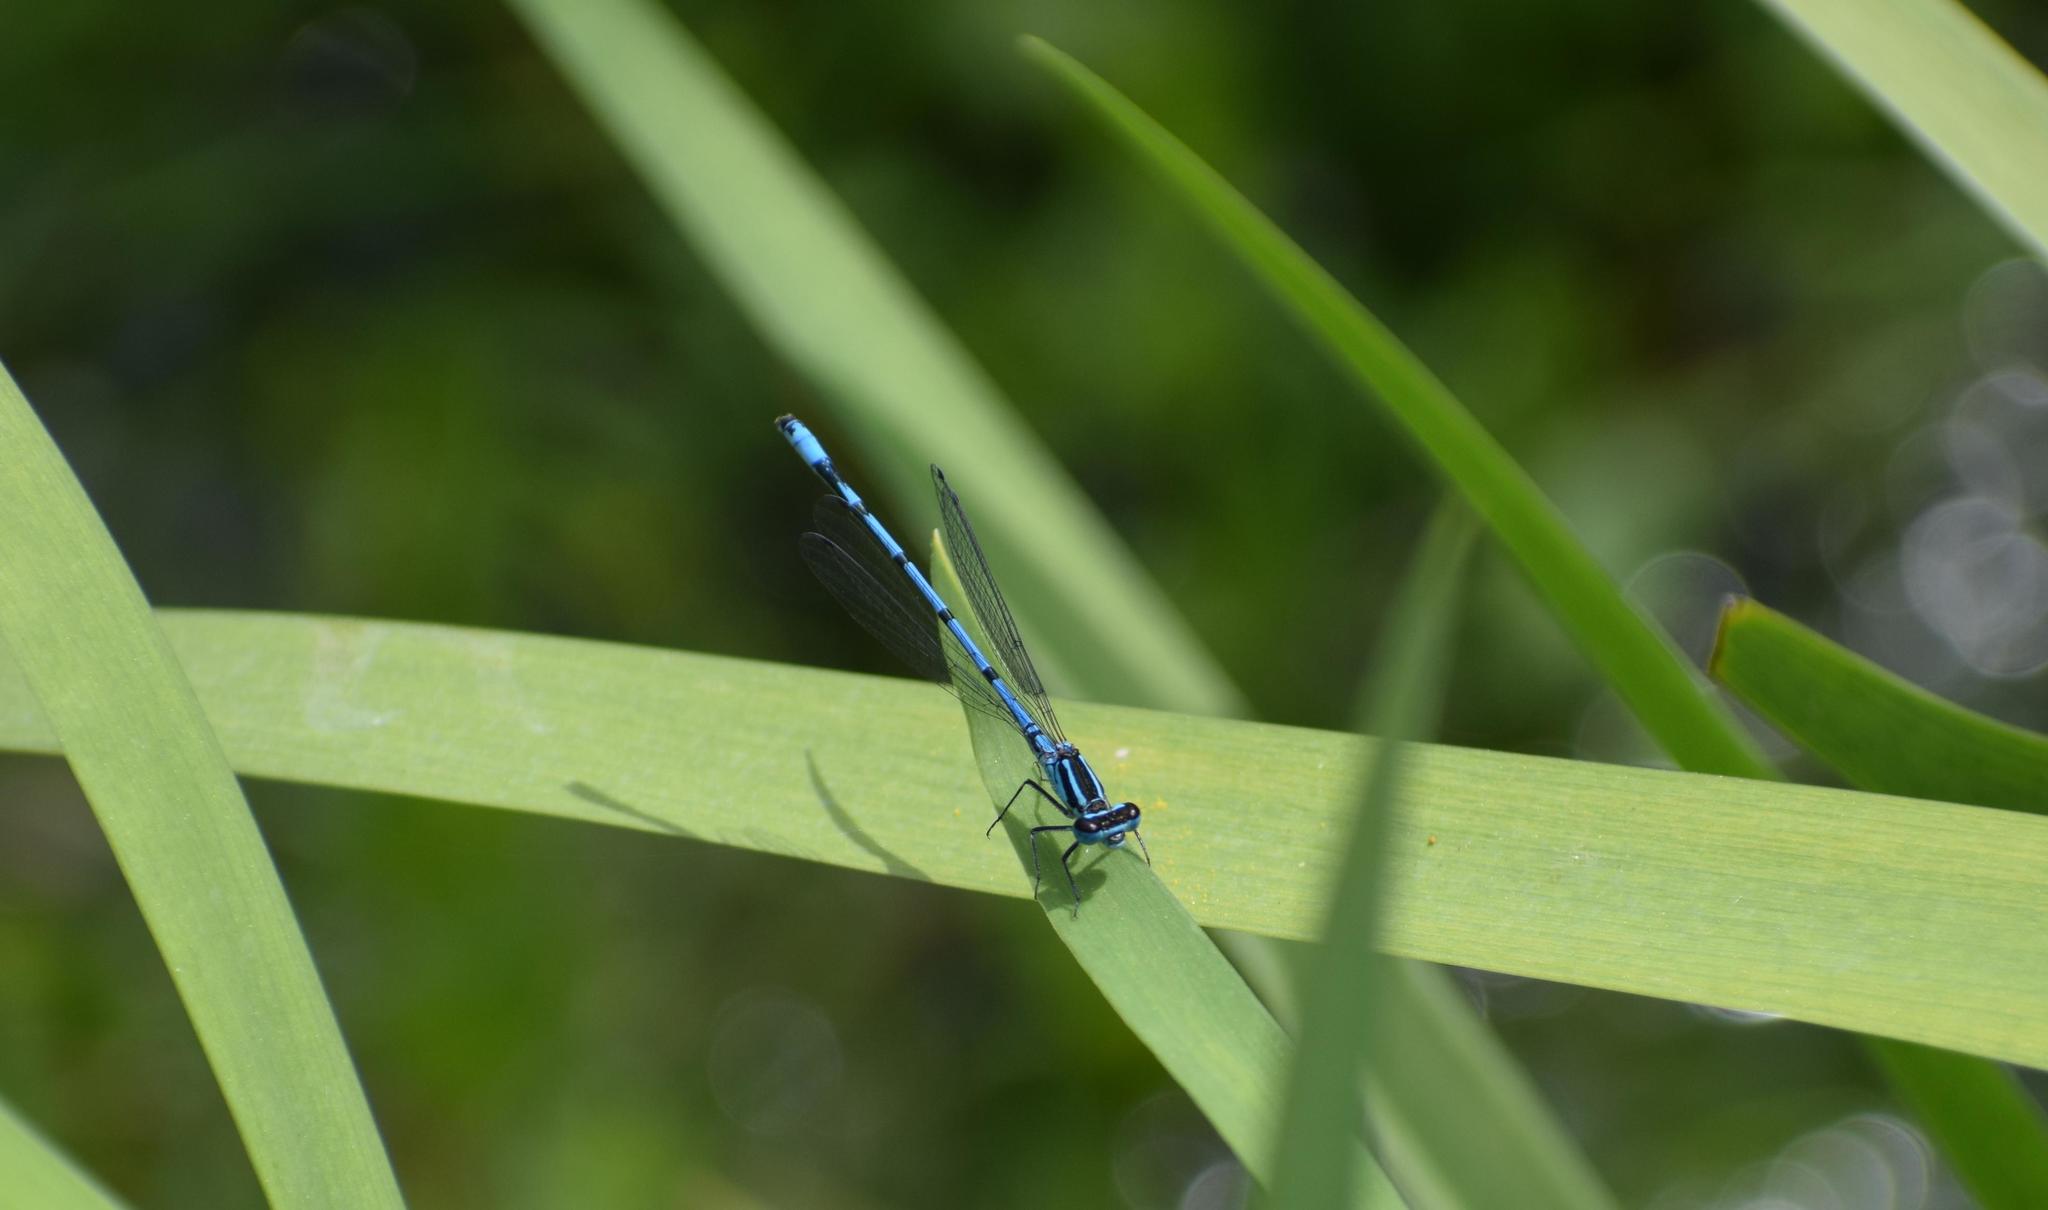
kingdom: Animalia
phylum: Arthropoda
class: Insecta
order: Odonata
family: Coenagrionidae
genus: Coenagrion
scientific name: Coenagrion puella
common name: Azure damselfly
